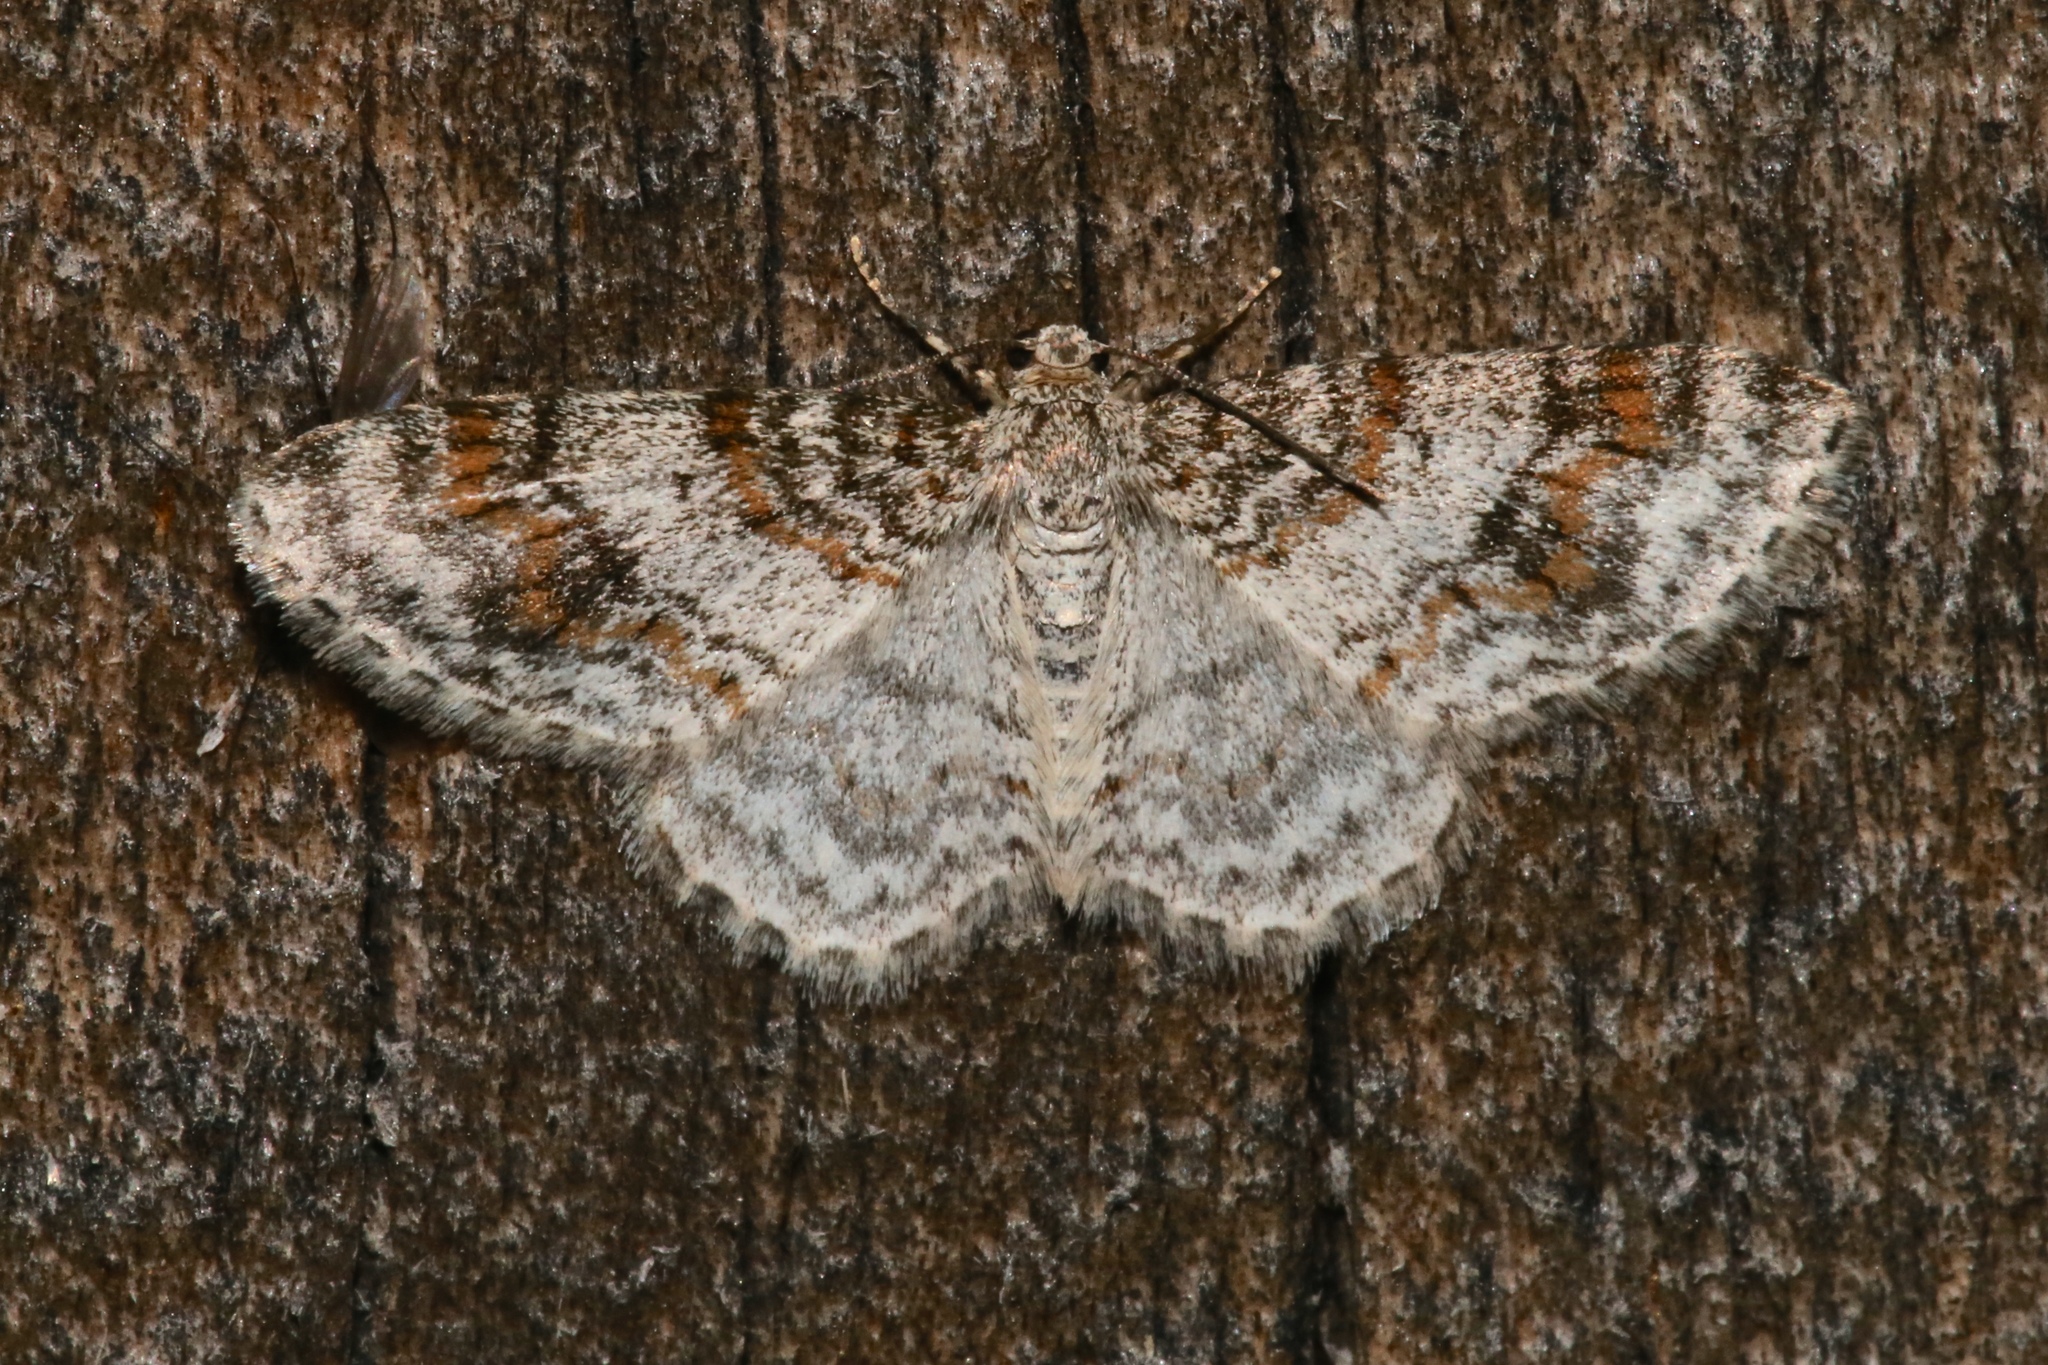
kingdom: Animalia
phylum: Arthropoda
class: Insecta
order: Lepidoptera
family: Geometridae
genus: Hydrelia
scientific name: Hydrelia inornata
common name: Unadorned carpet moth
